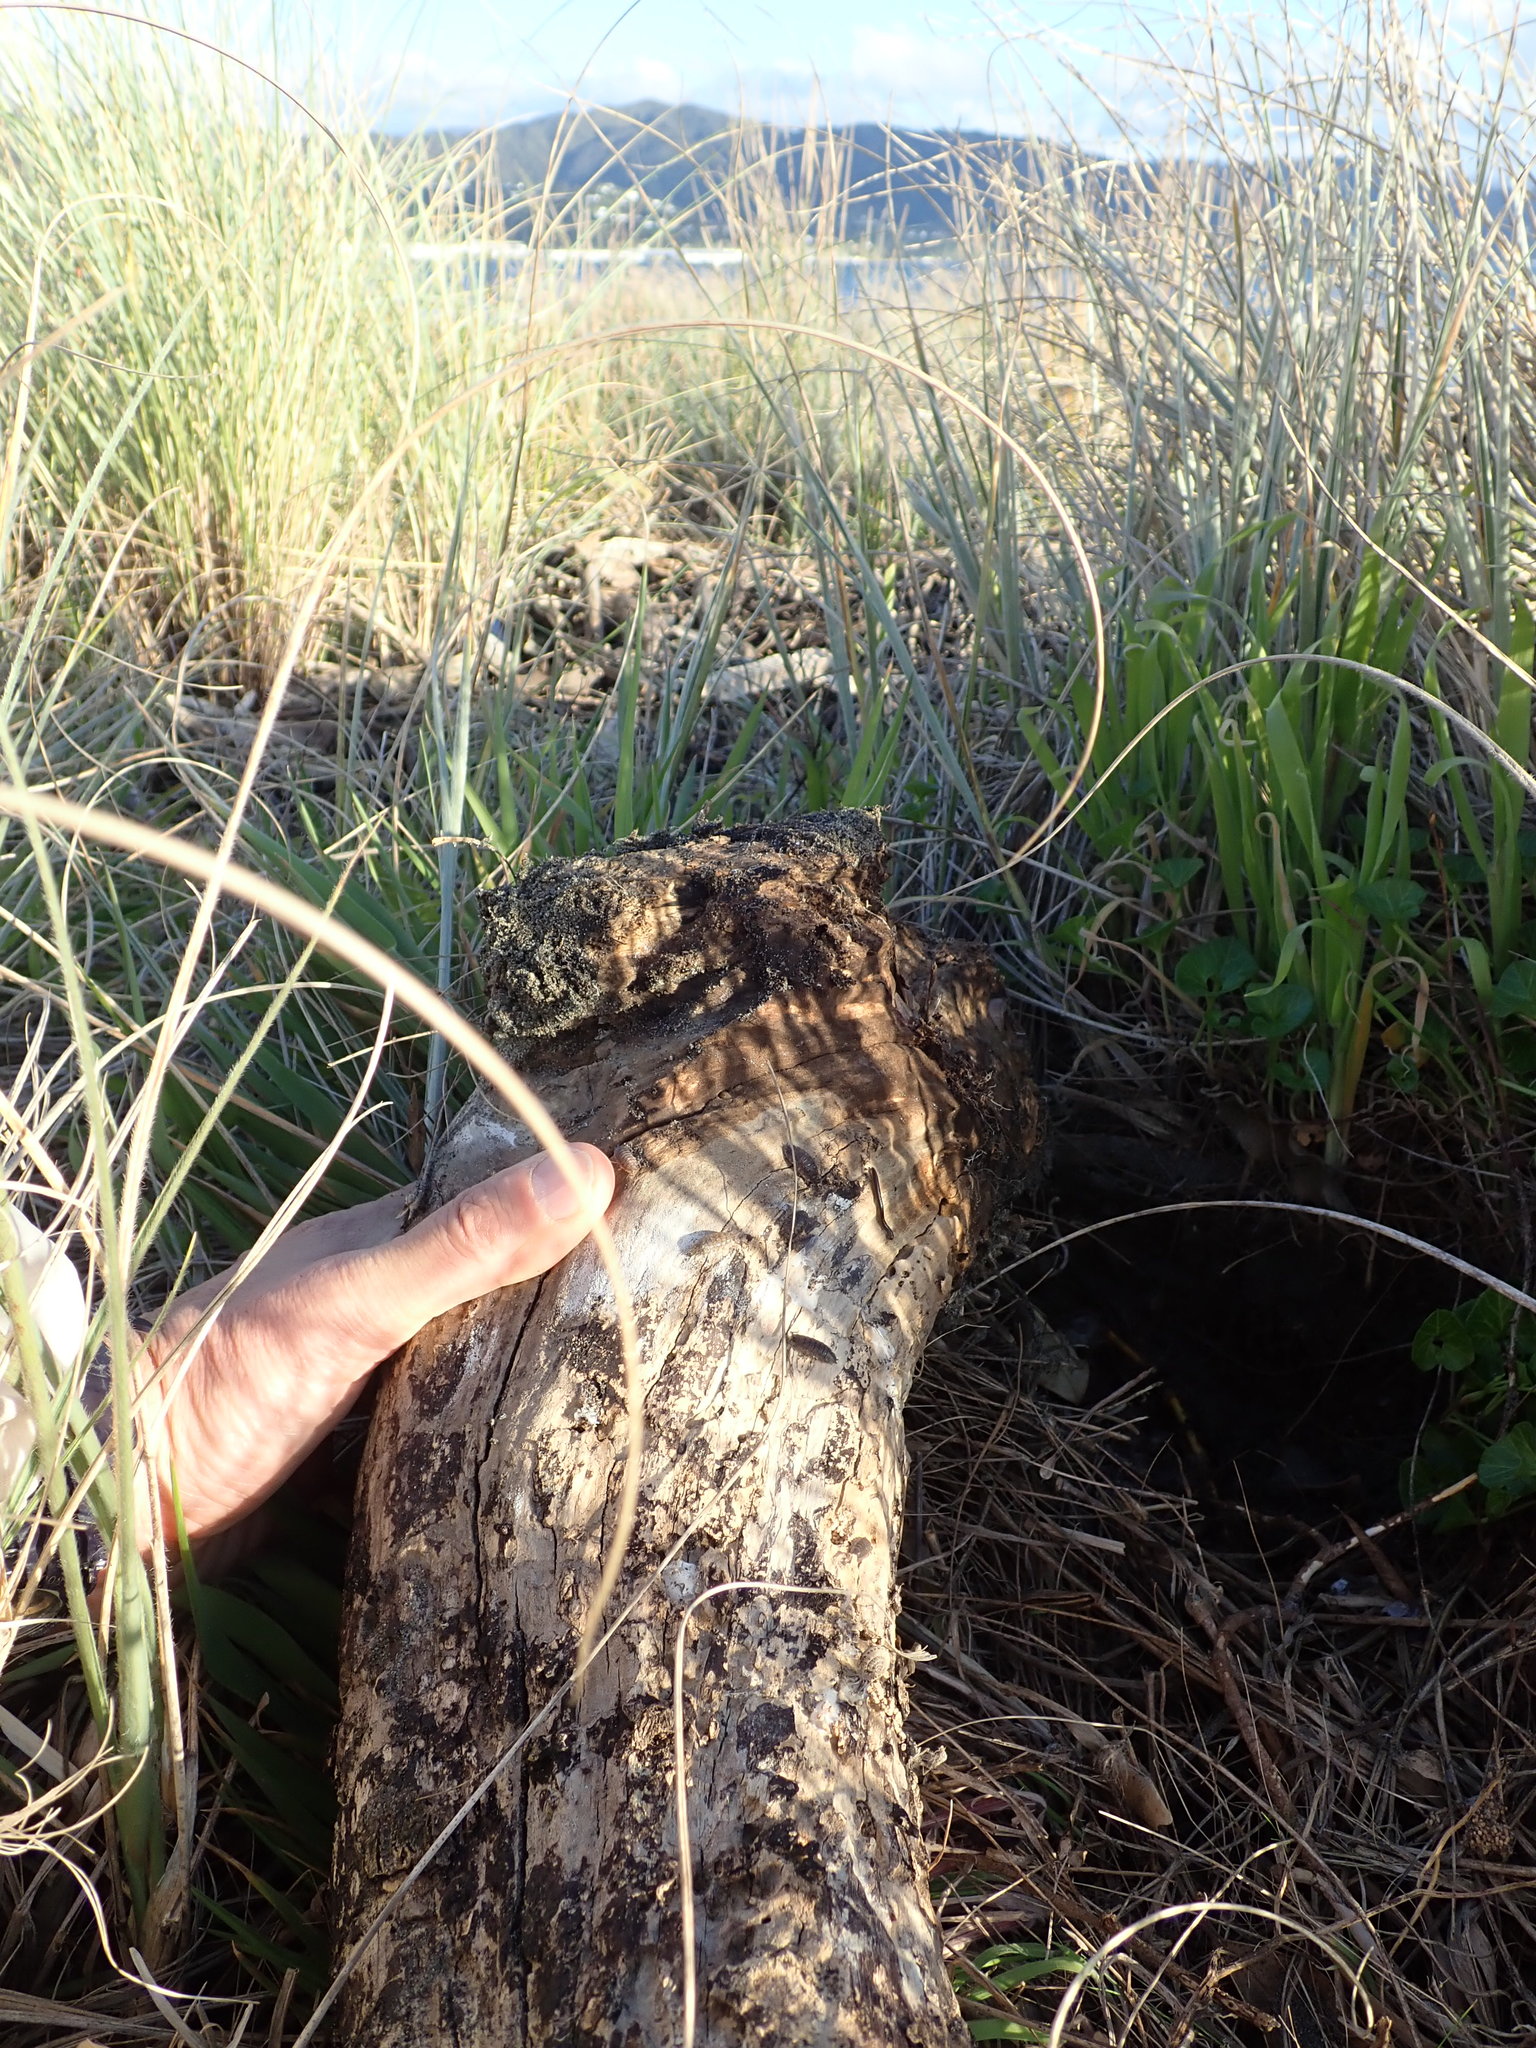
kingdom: Animalia
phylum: Mollusca
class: Gastropoda
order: Stylommatophora
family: Limacidae
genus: Ambigolimax
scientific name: Ambigolimax
